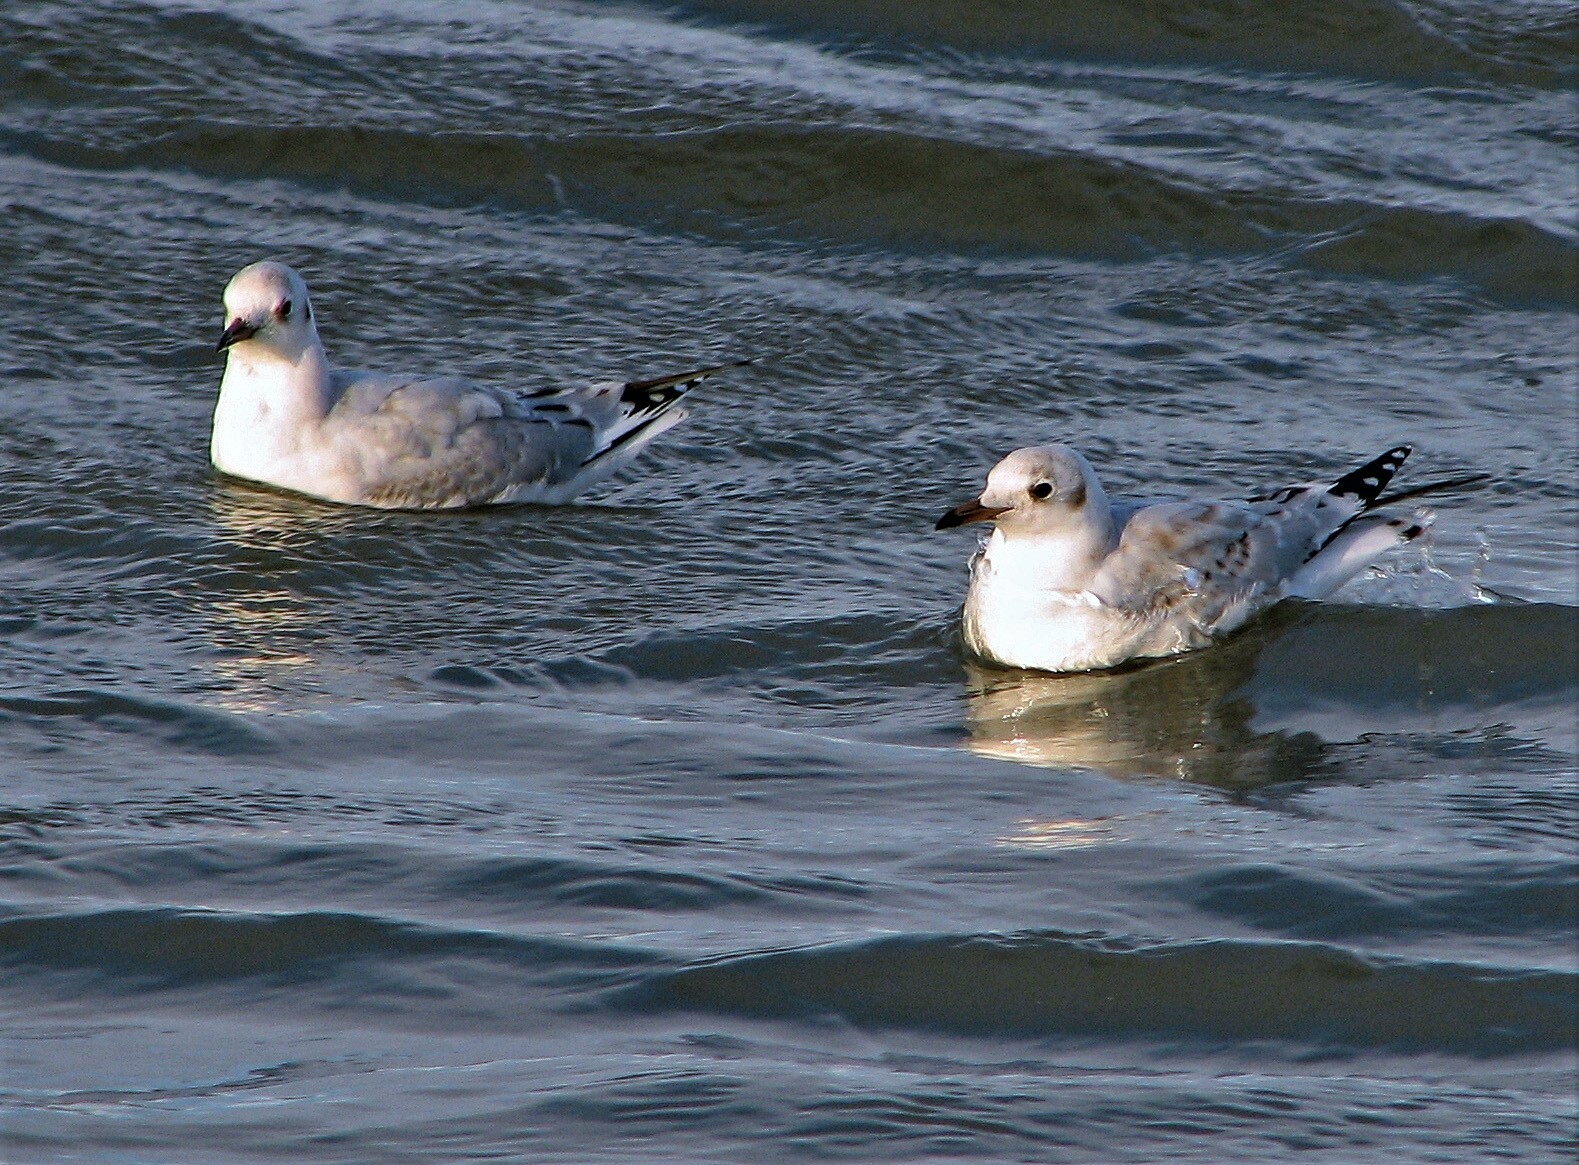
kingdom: Animalia
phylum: Chordata
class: Aves
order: Charadriiformes
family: Laridae
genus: Chroicocephalus
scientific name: Chroicocephalus maculipennis
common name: Brown-hooded gull
